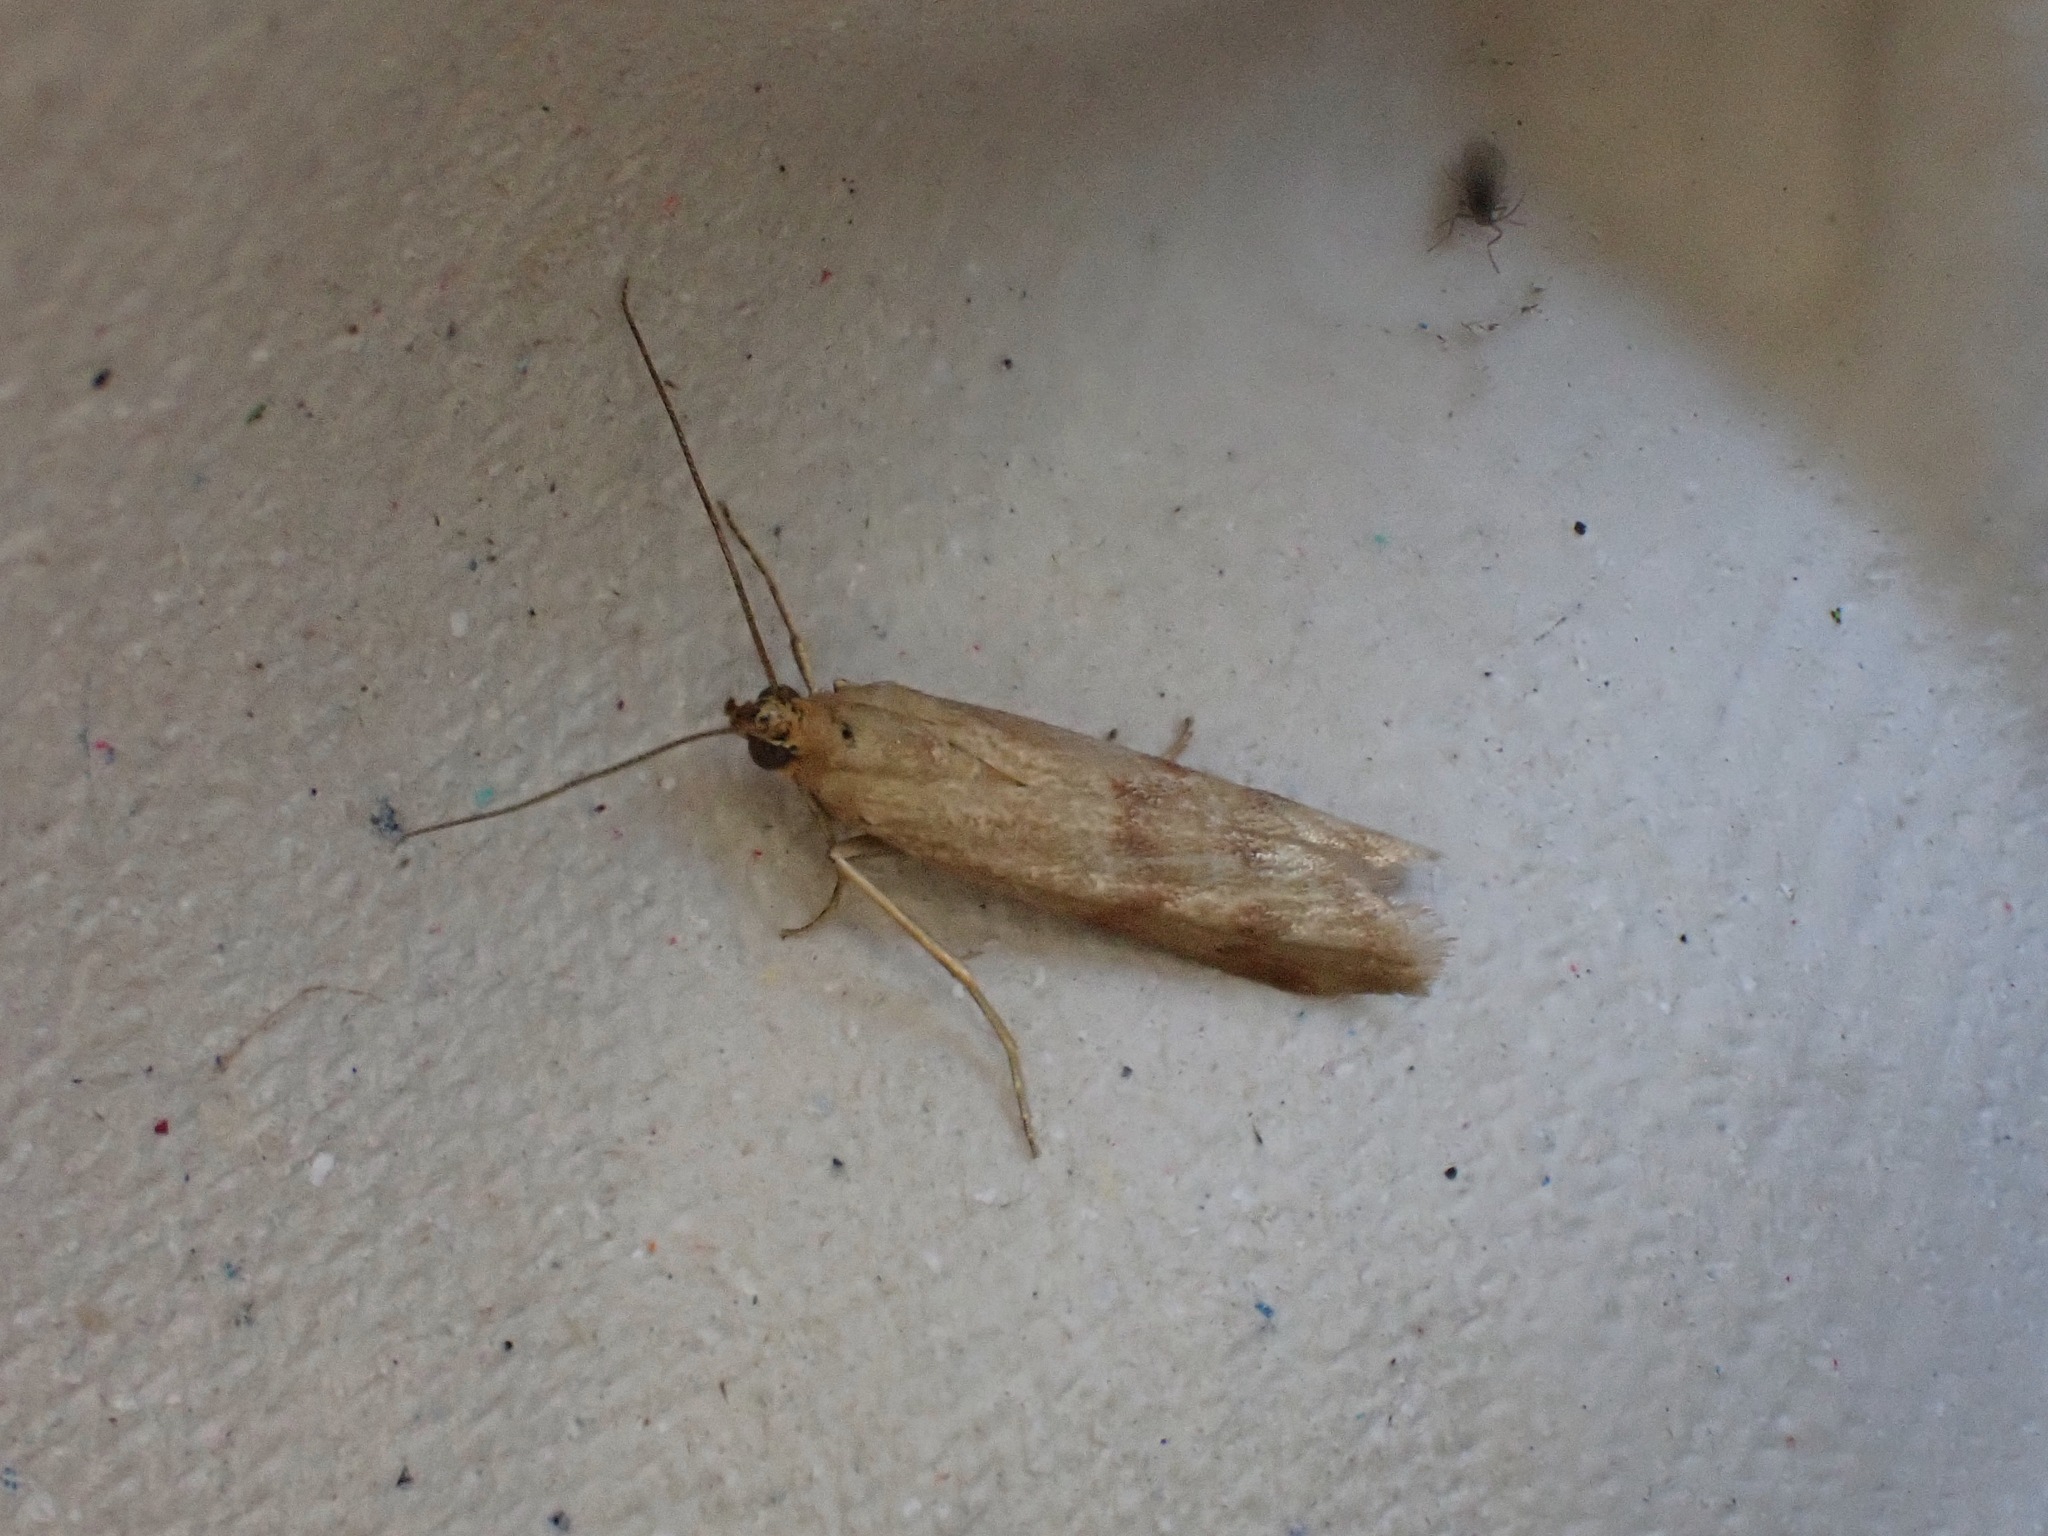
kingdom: Animalia
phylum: Arthropoda
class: Insecta
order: Lepidoptera
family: Crambidae
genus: Nomophila
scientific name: Nomophila noctuella
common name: Rush veneer
